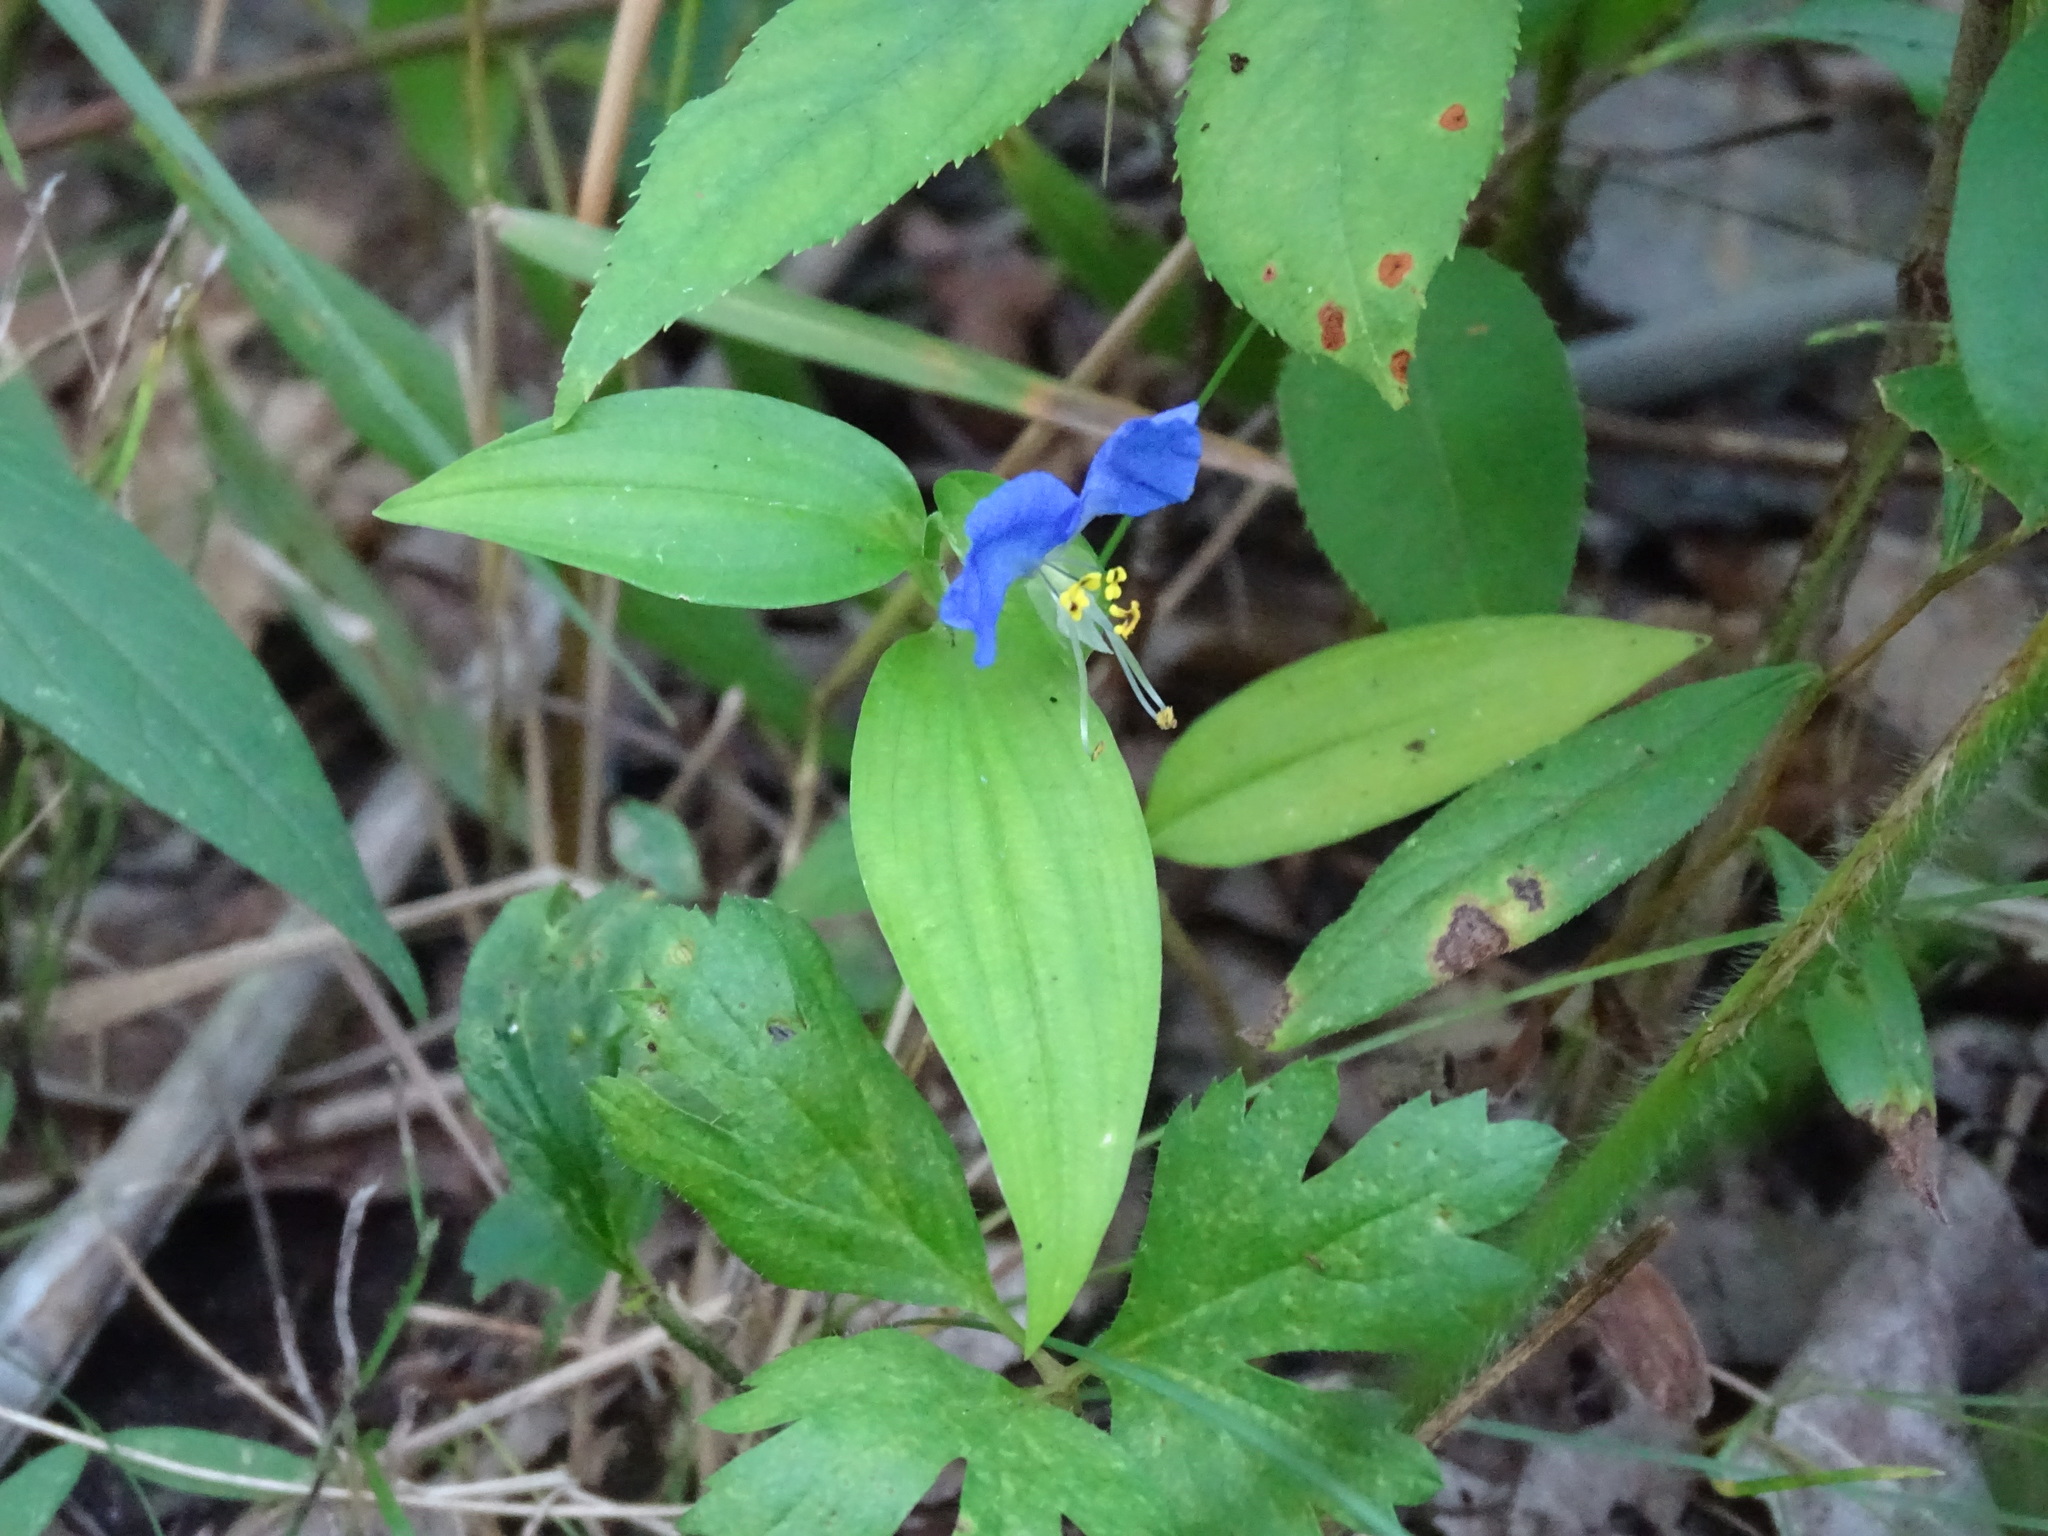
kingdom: Plantae
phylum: Tracheophyta
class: Liliopsida
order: Commelinales
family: Commelinaceae
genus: Commelina
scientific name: Commelina communis
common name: Asiatic dayflower
